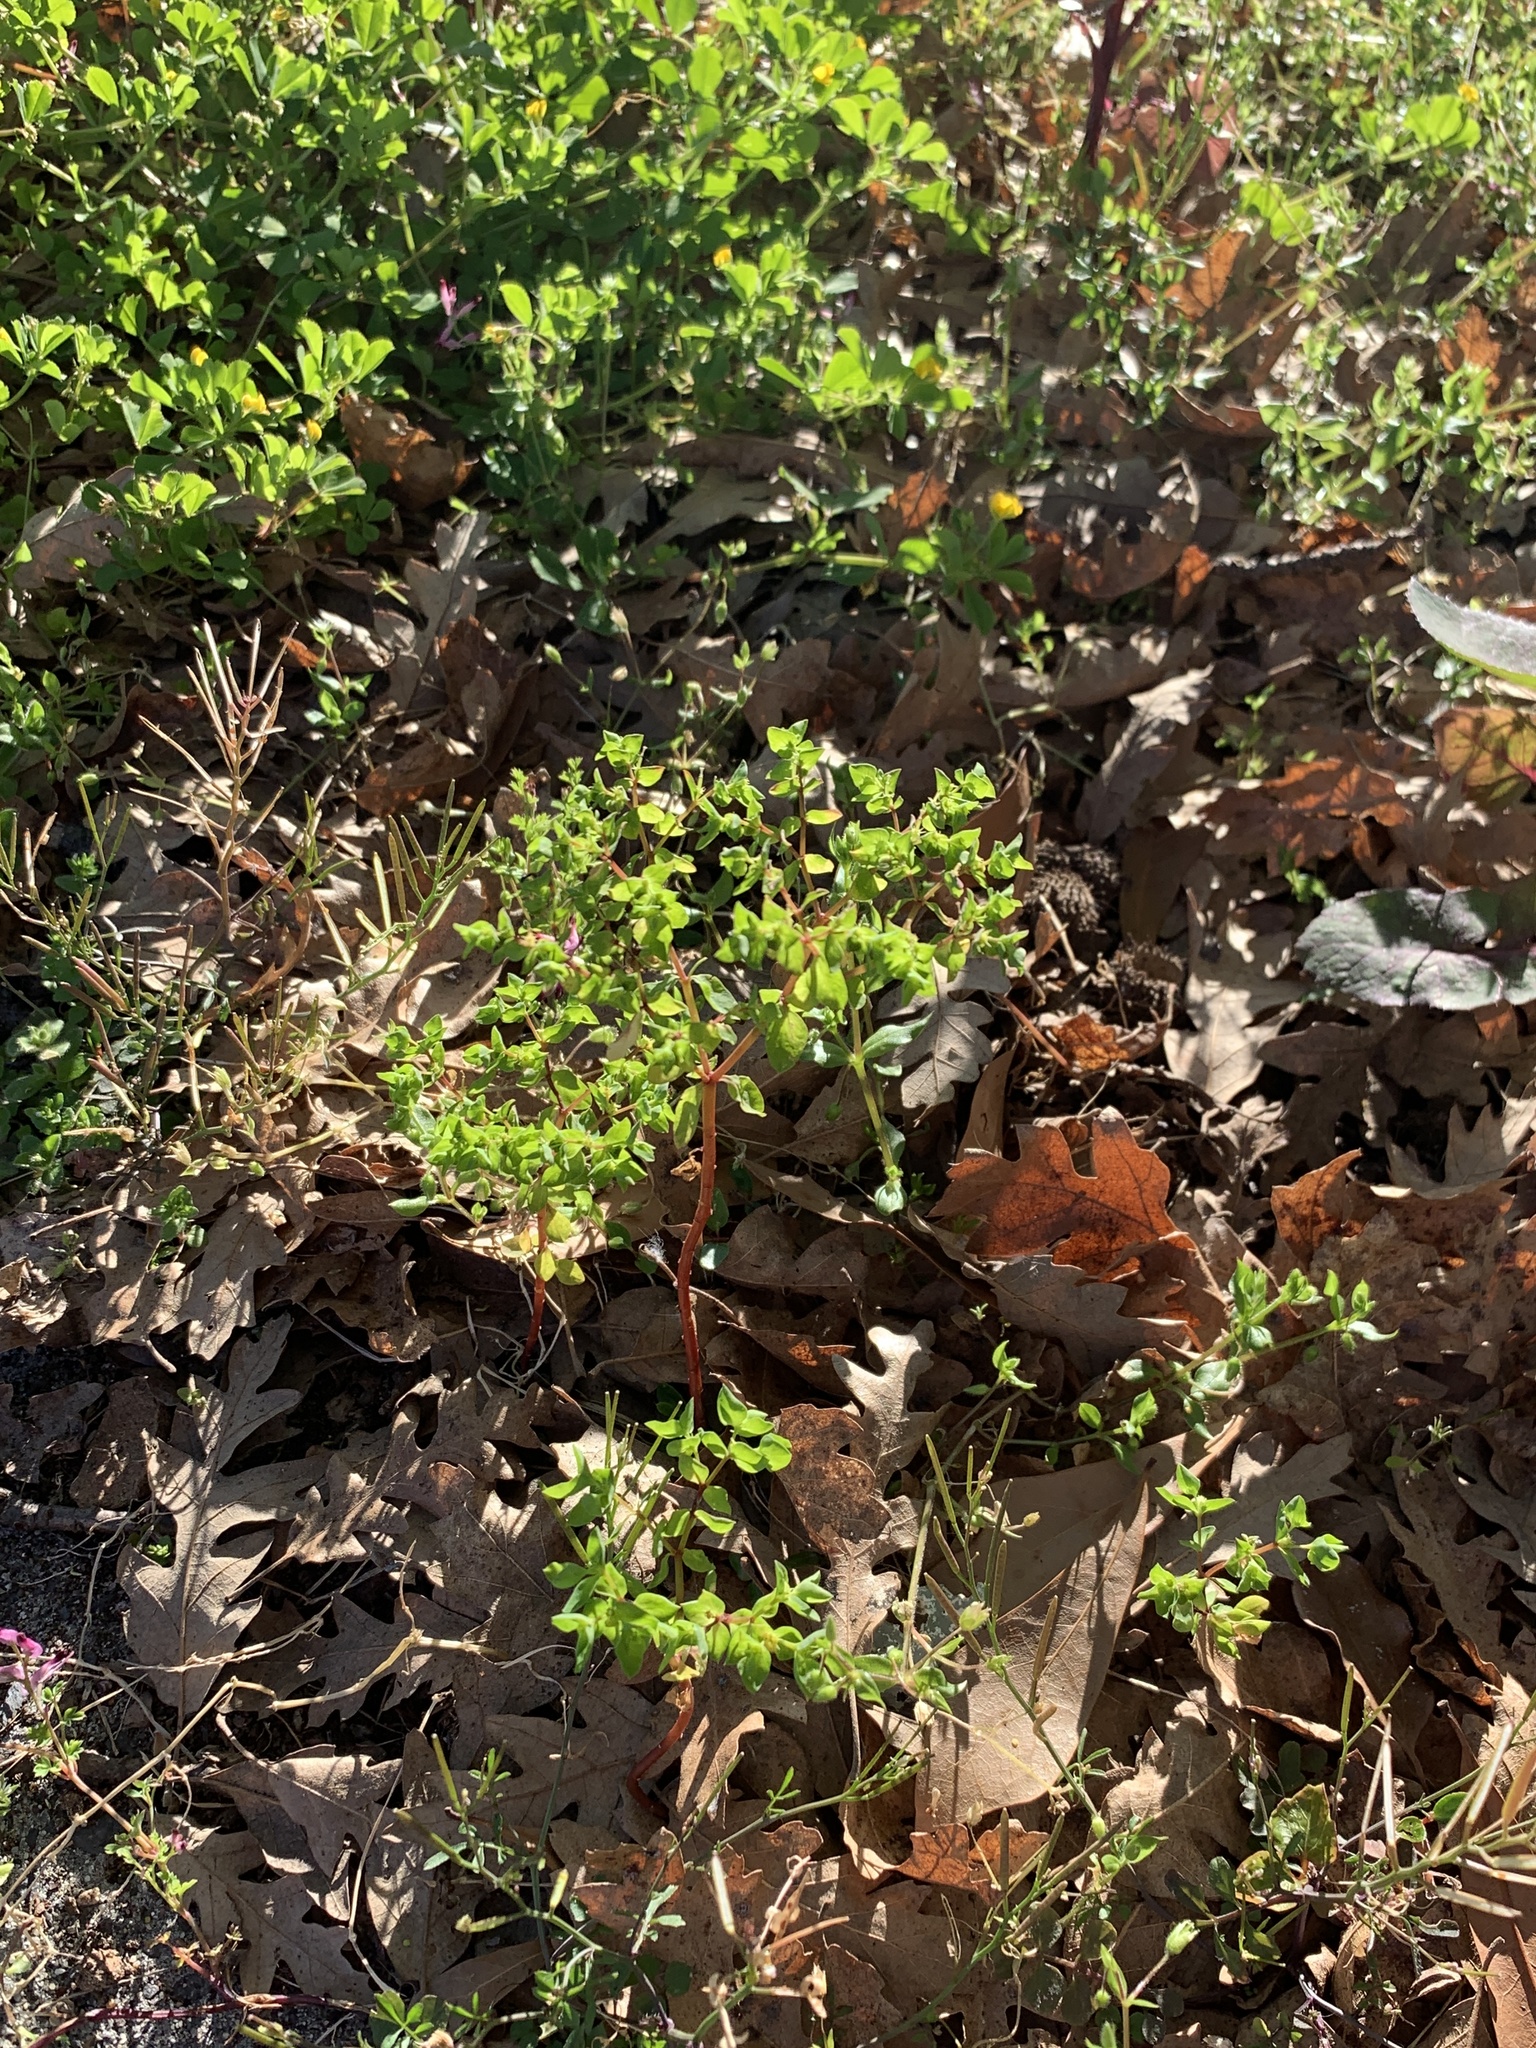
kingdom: Plantae
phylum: Tracheophyta
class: Magnoliopsida
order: Malpighiales
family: Euphorbiaceae
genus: Euphorbia
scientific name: Euphorbia peplus
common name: Petty spurge
